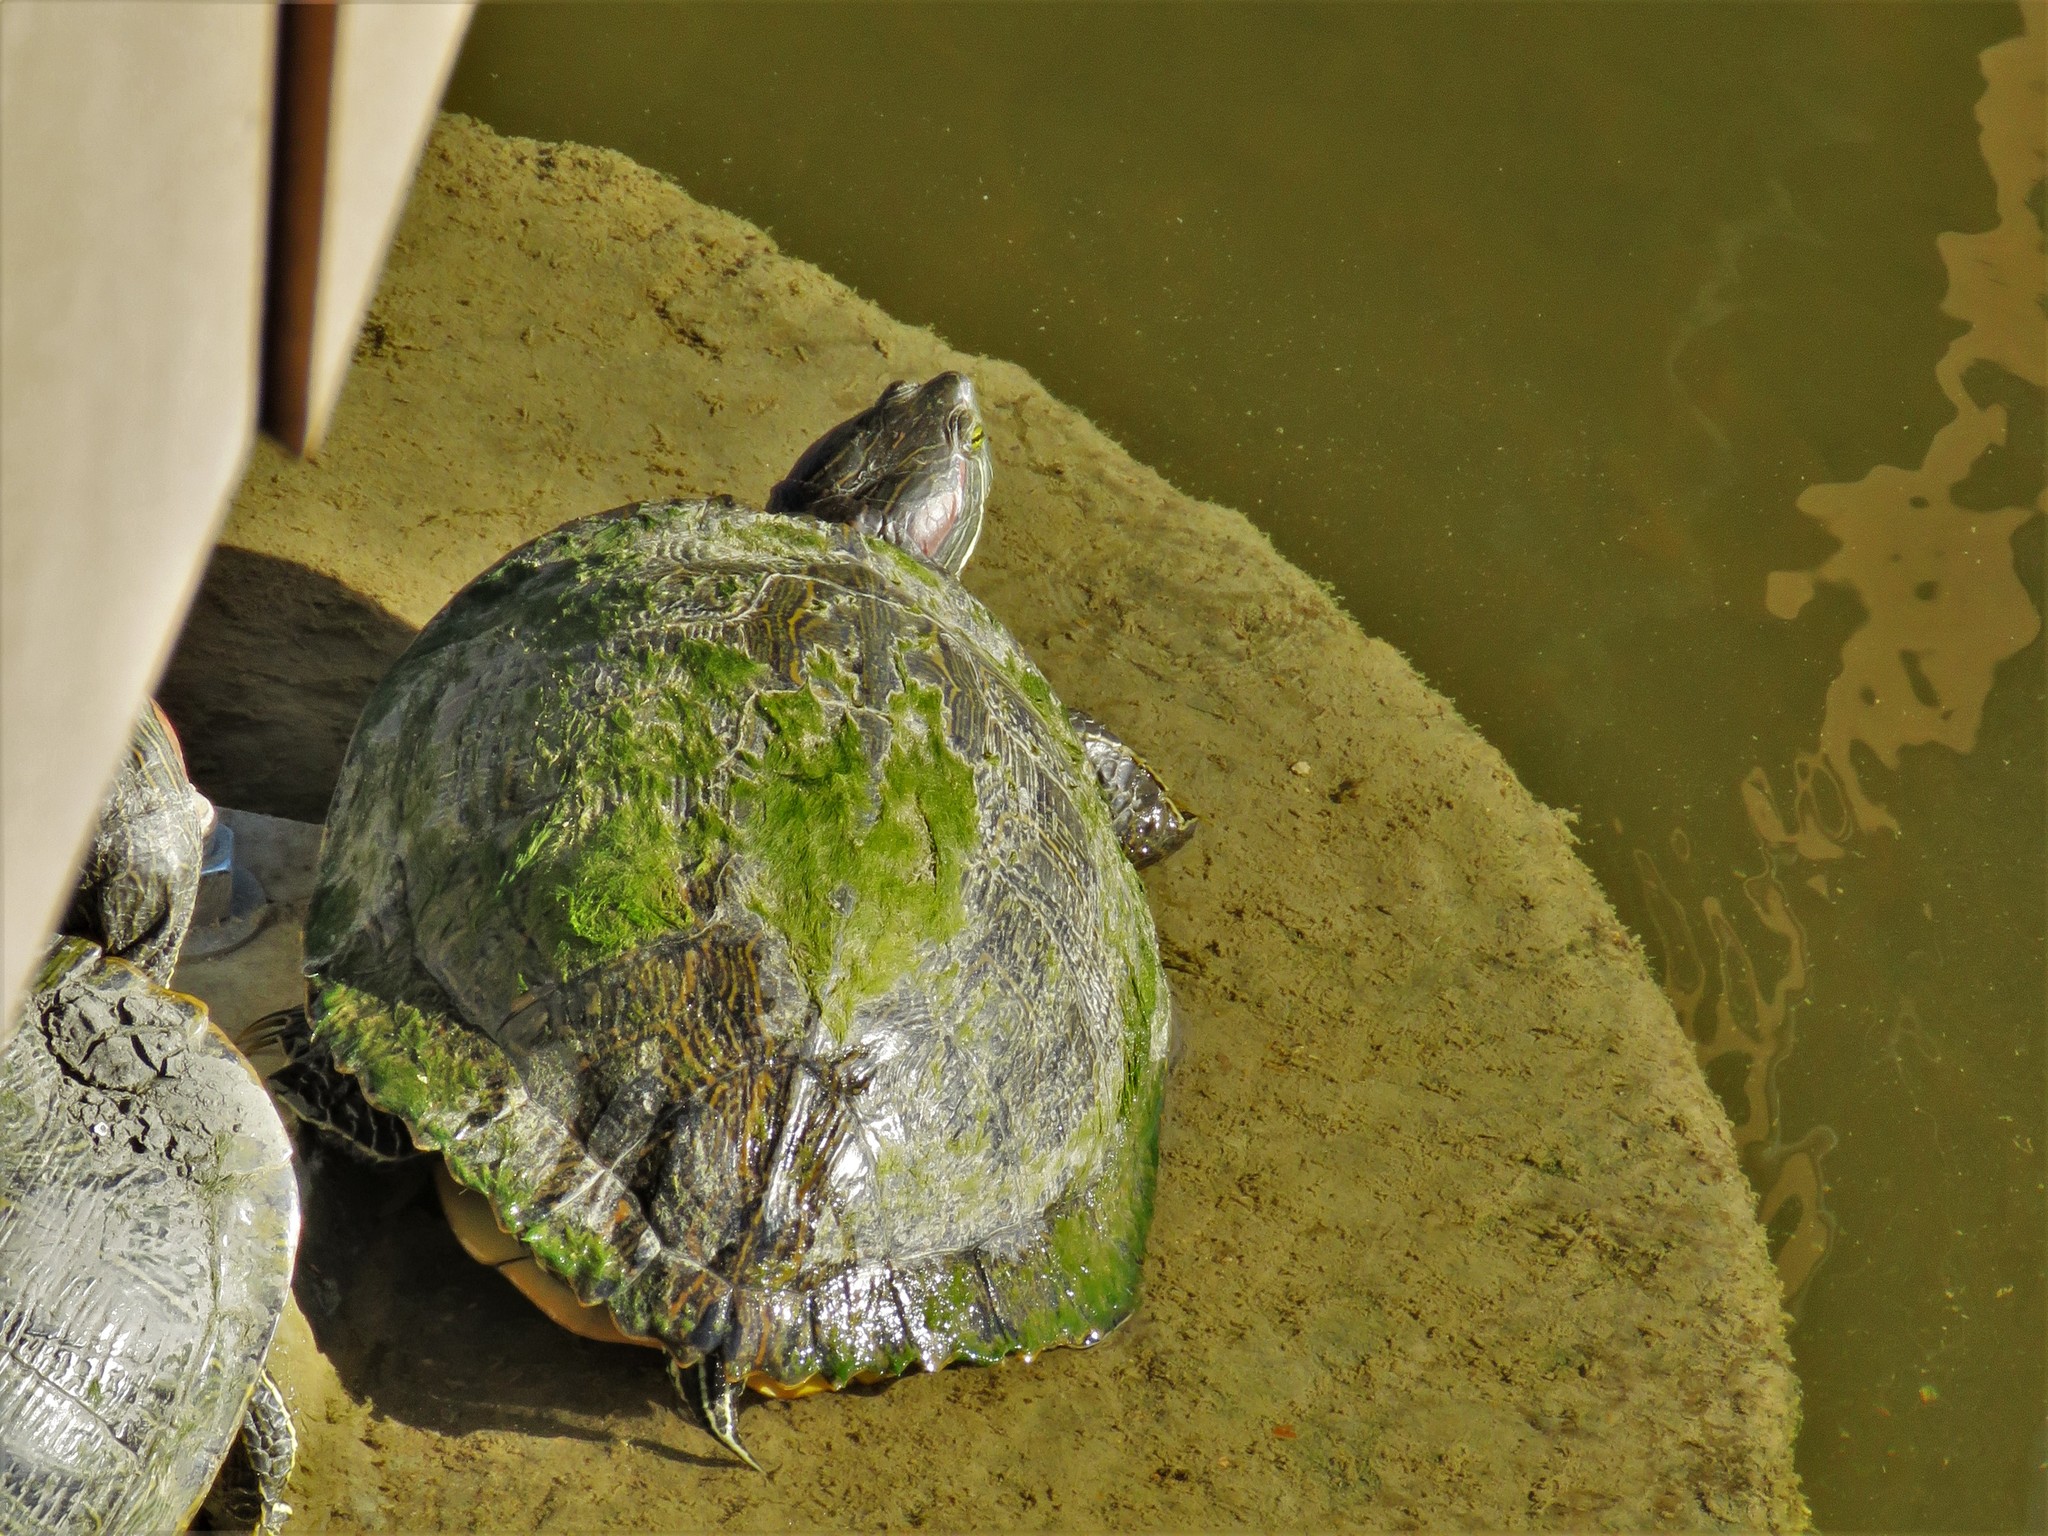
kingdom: Animalia
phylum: Chordata
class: Testudines
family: Emydidae
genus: Trachemys
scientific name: Trachemys scripta
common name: Slider
